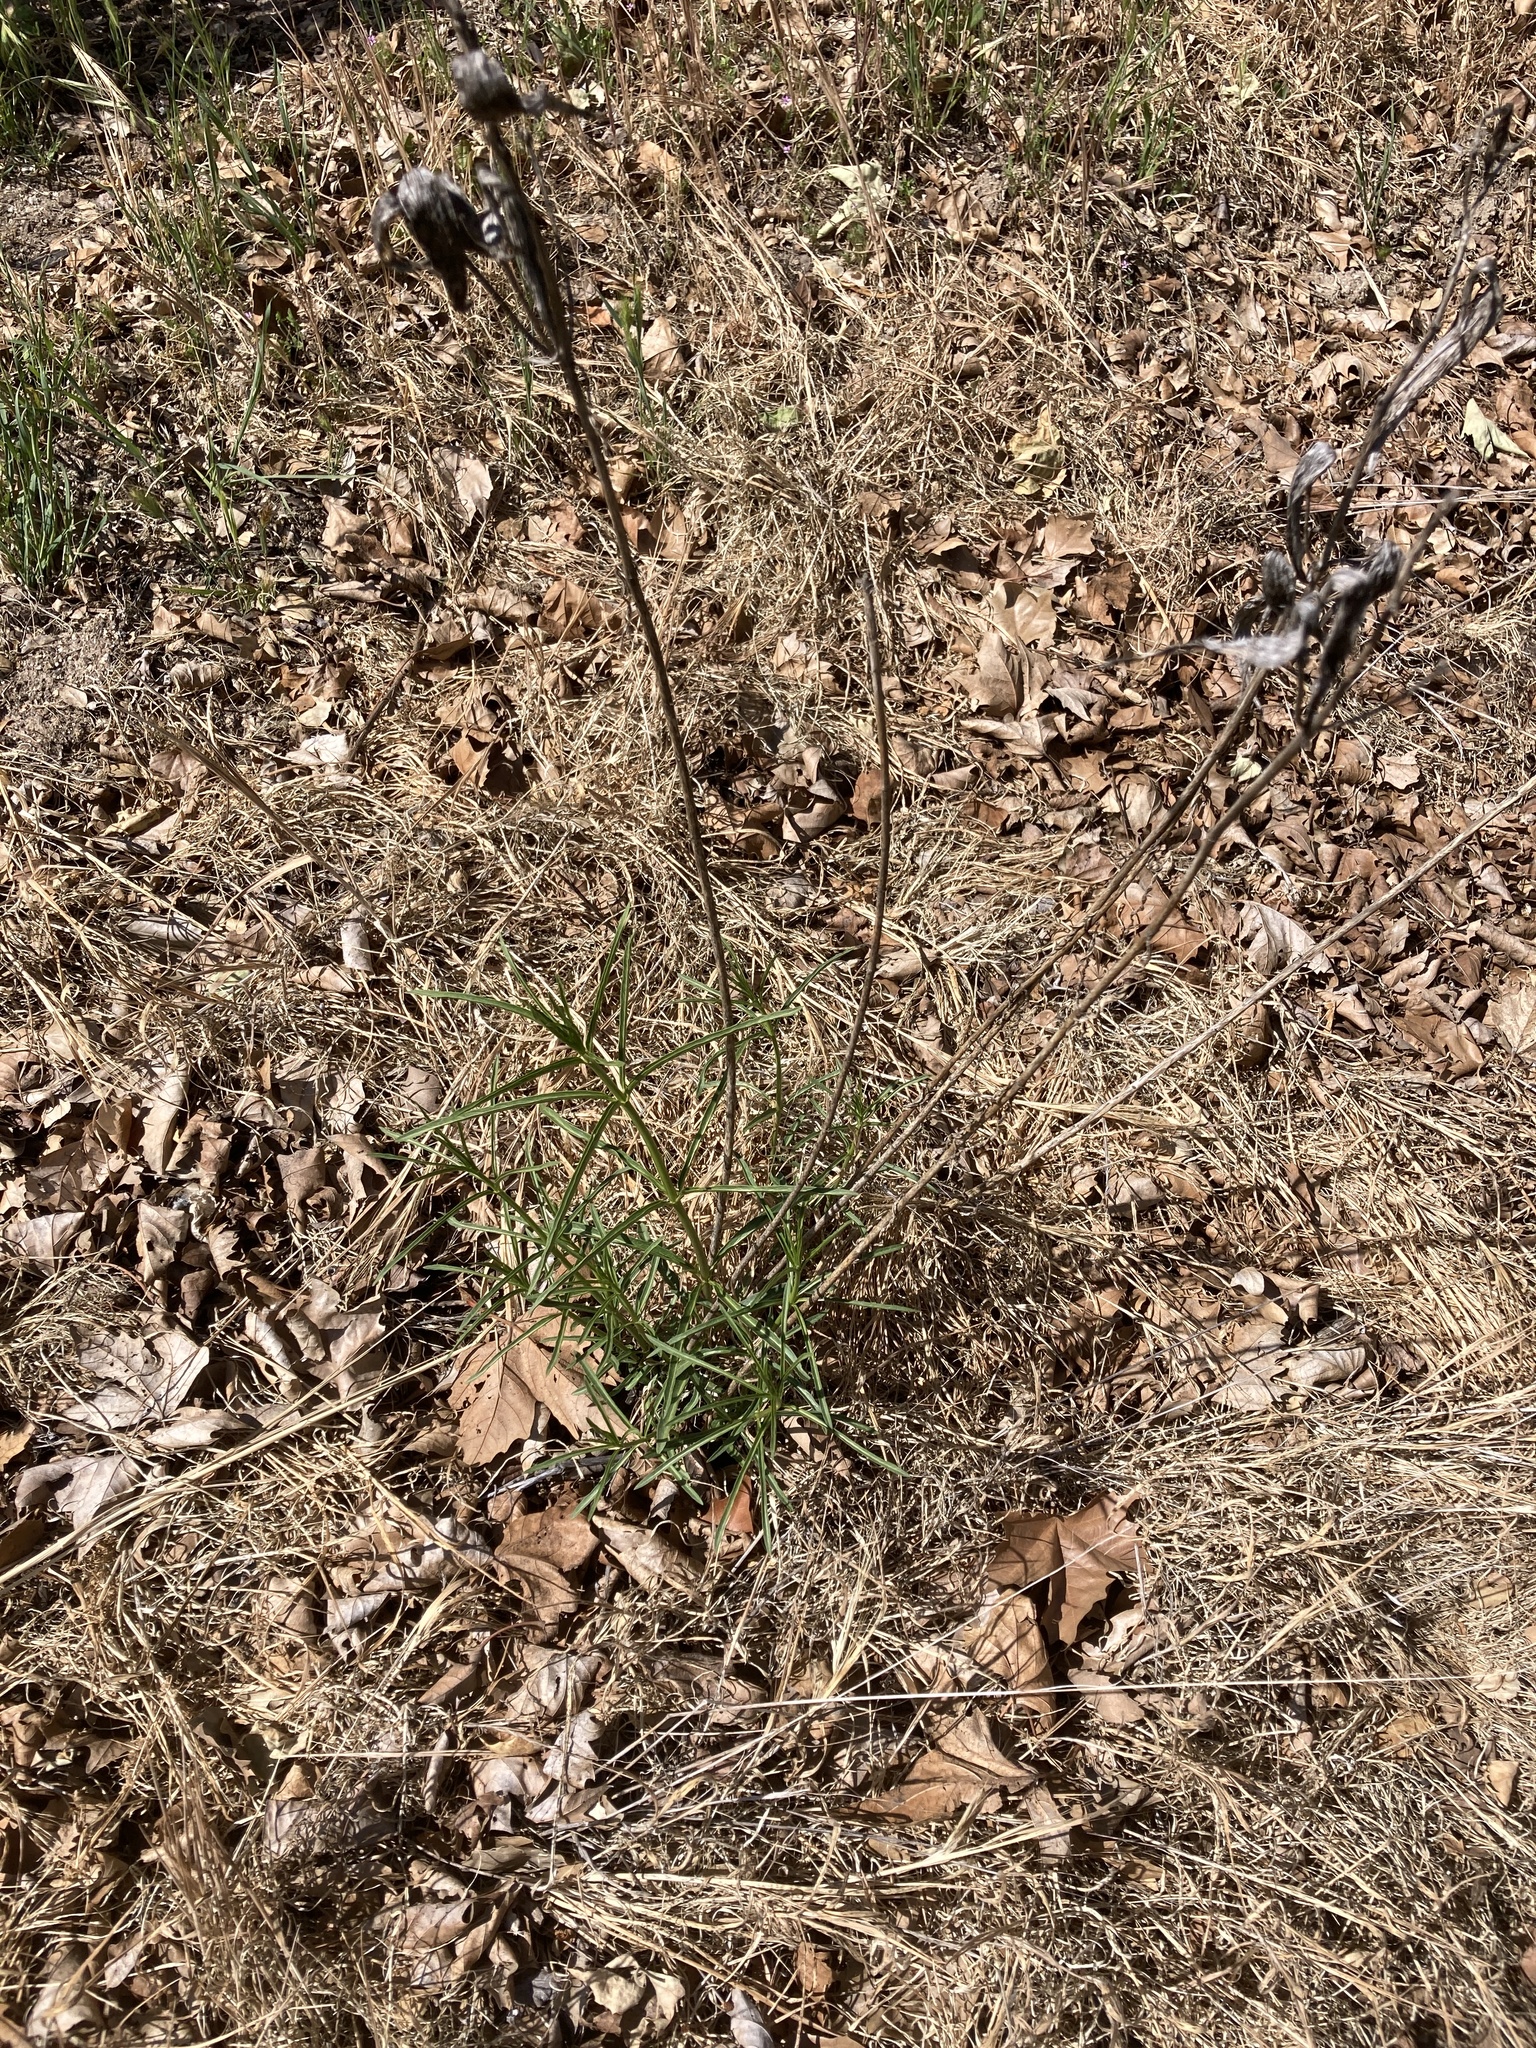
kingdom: Plantae
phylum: Tracheophyta
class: Magnoliopsida
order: Gentianales
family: Apocynaceae
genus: Asclepias
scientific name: Asclepias fascicularis
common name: Mexican milkweed
